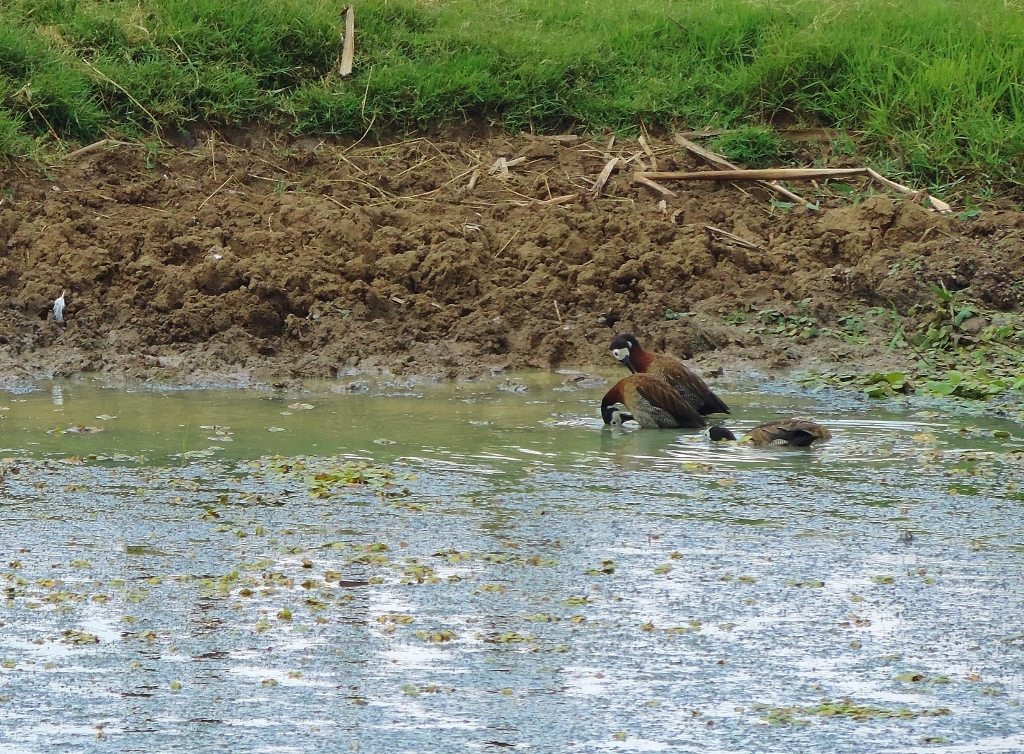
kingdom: Animalia
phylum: Chordata
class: Aves
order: Anseriformes
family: Anatidae
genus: Dendrocygna
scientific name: Dendrocygna viduata
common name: White-faced whistling duck
